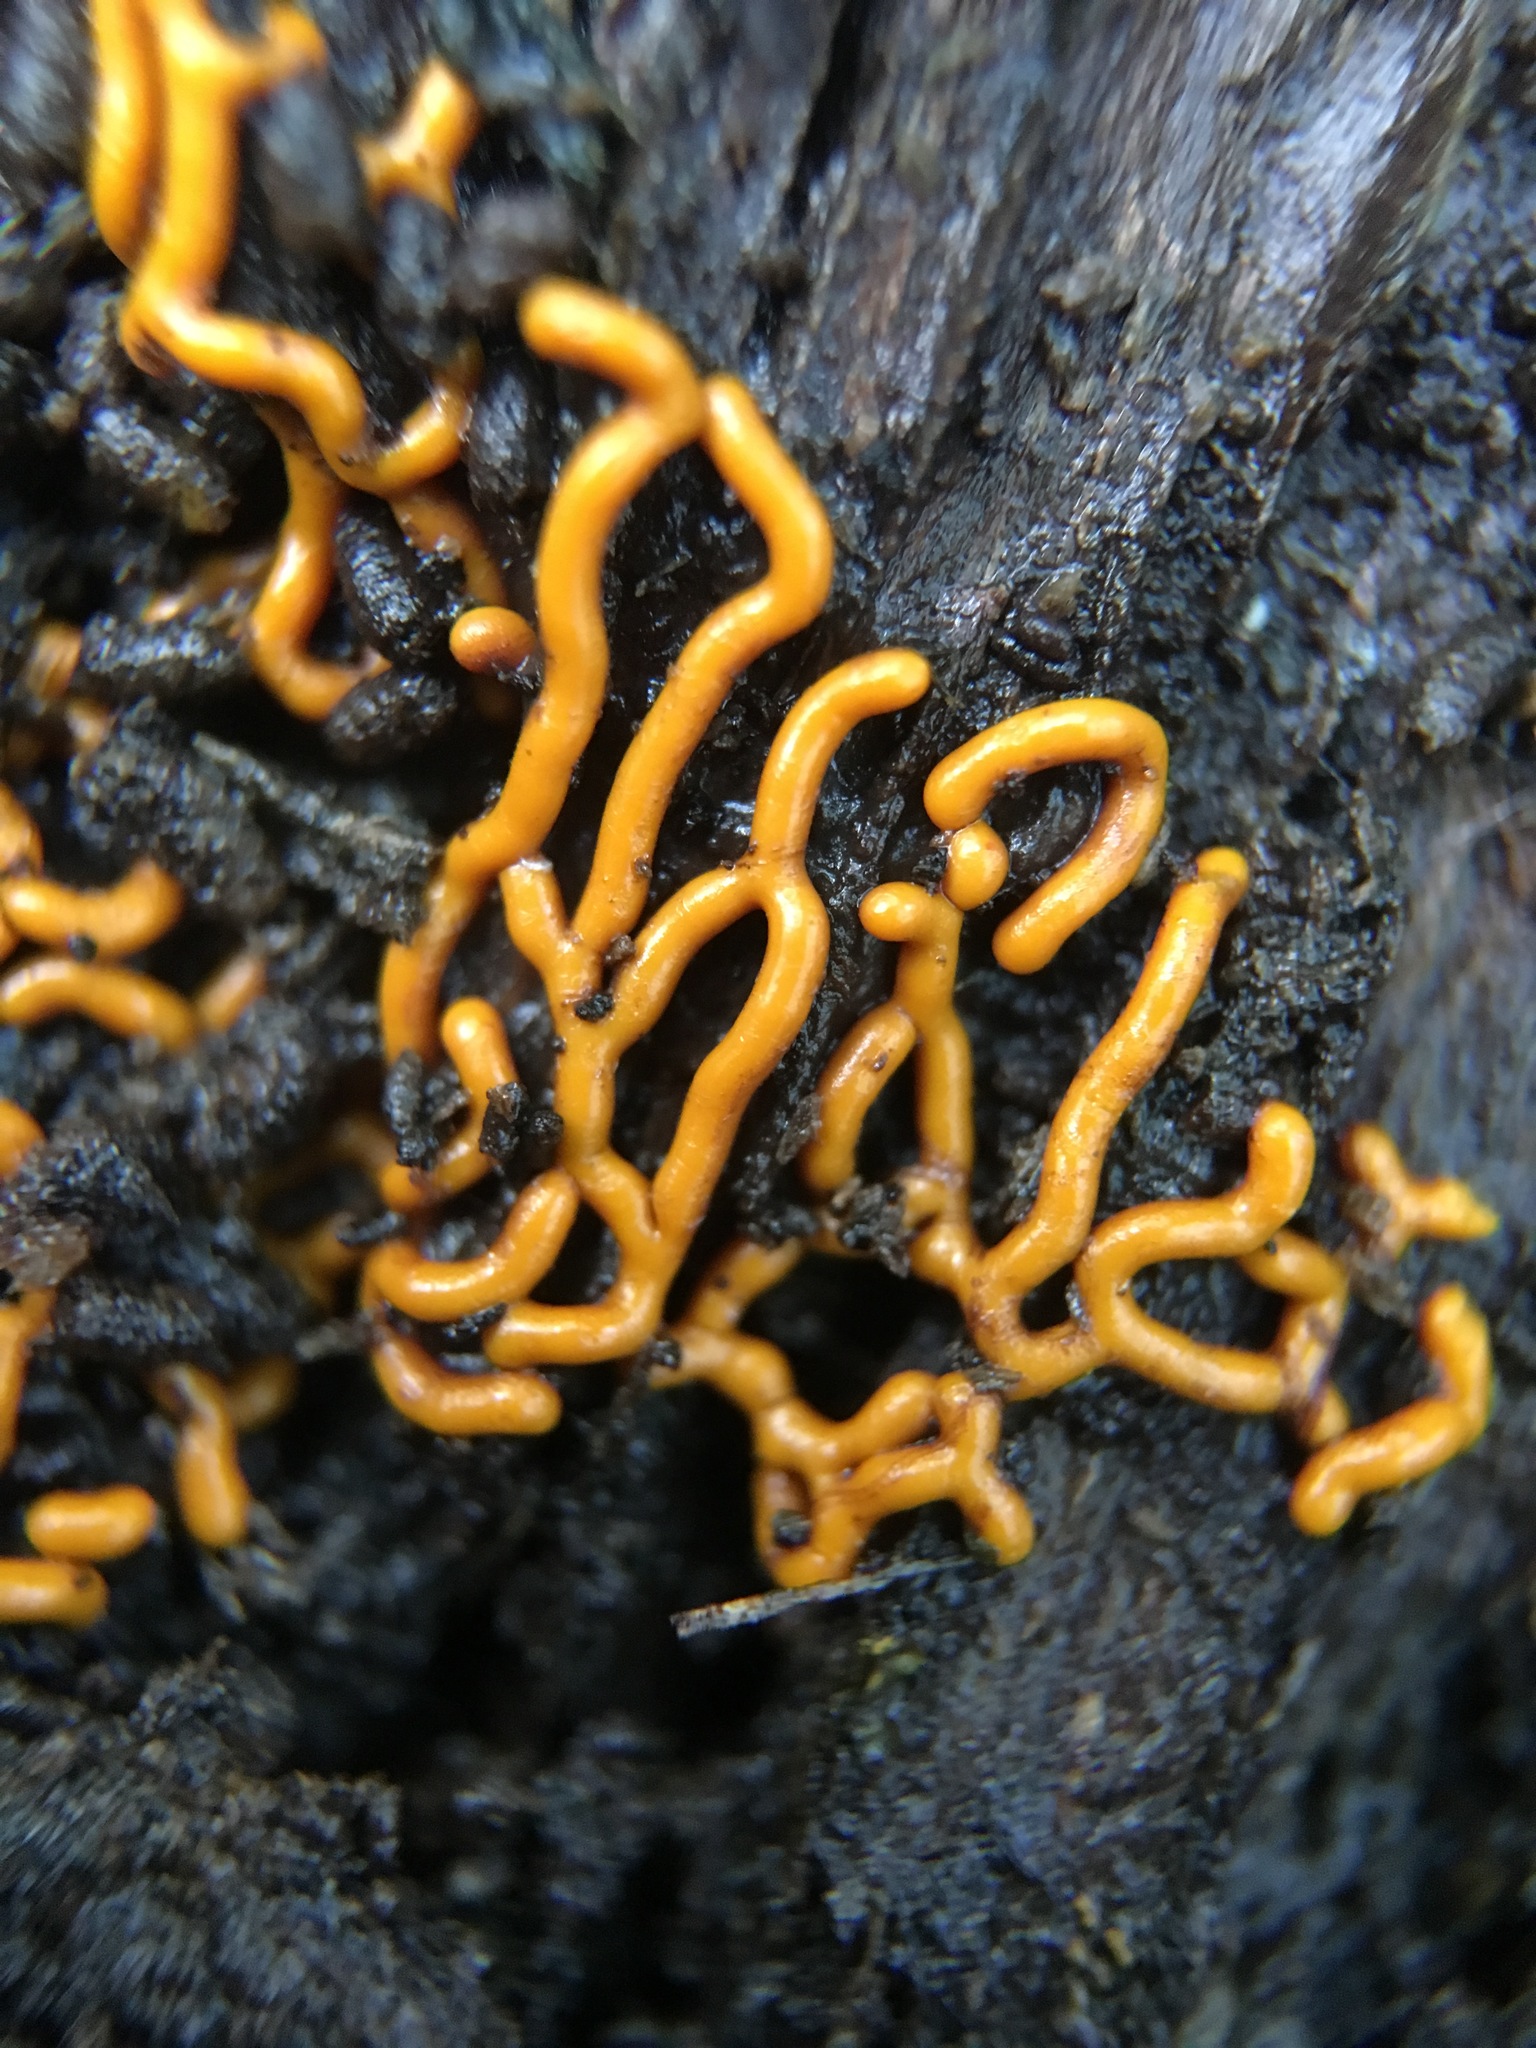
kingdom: Protozoa
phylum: Mycetozoa
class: Myxomycetes
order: Trichiales
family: Arcyriaceae
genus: Hemitrichia
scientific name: Hemitrichia serpula
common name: Pretzel slime mold
